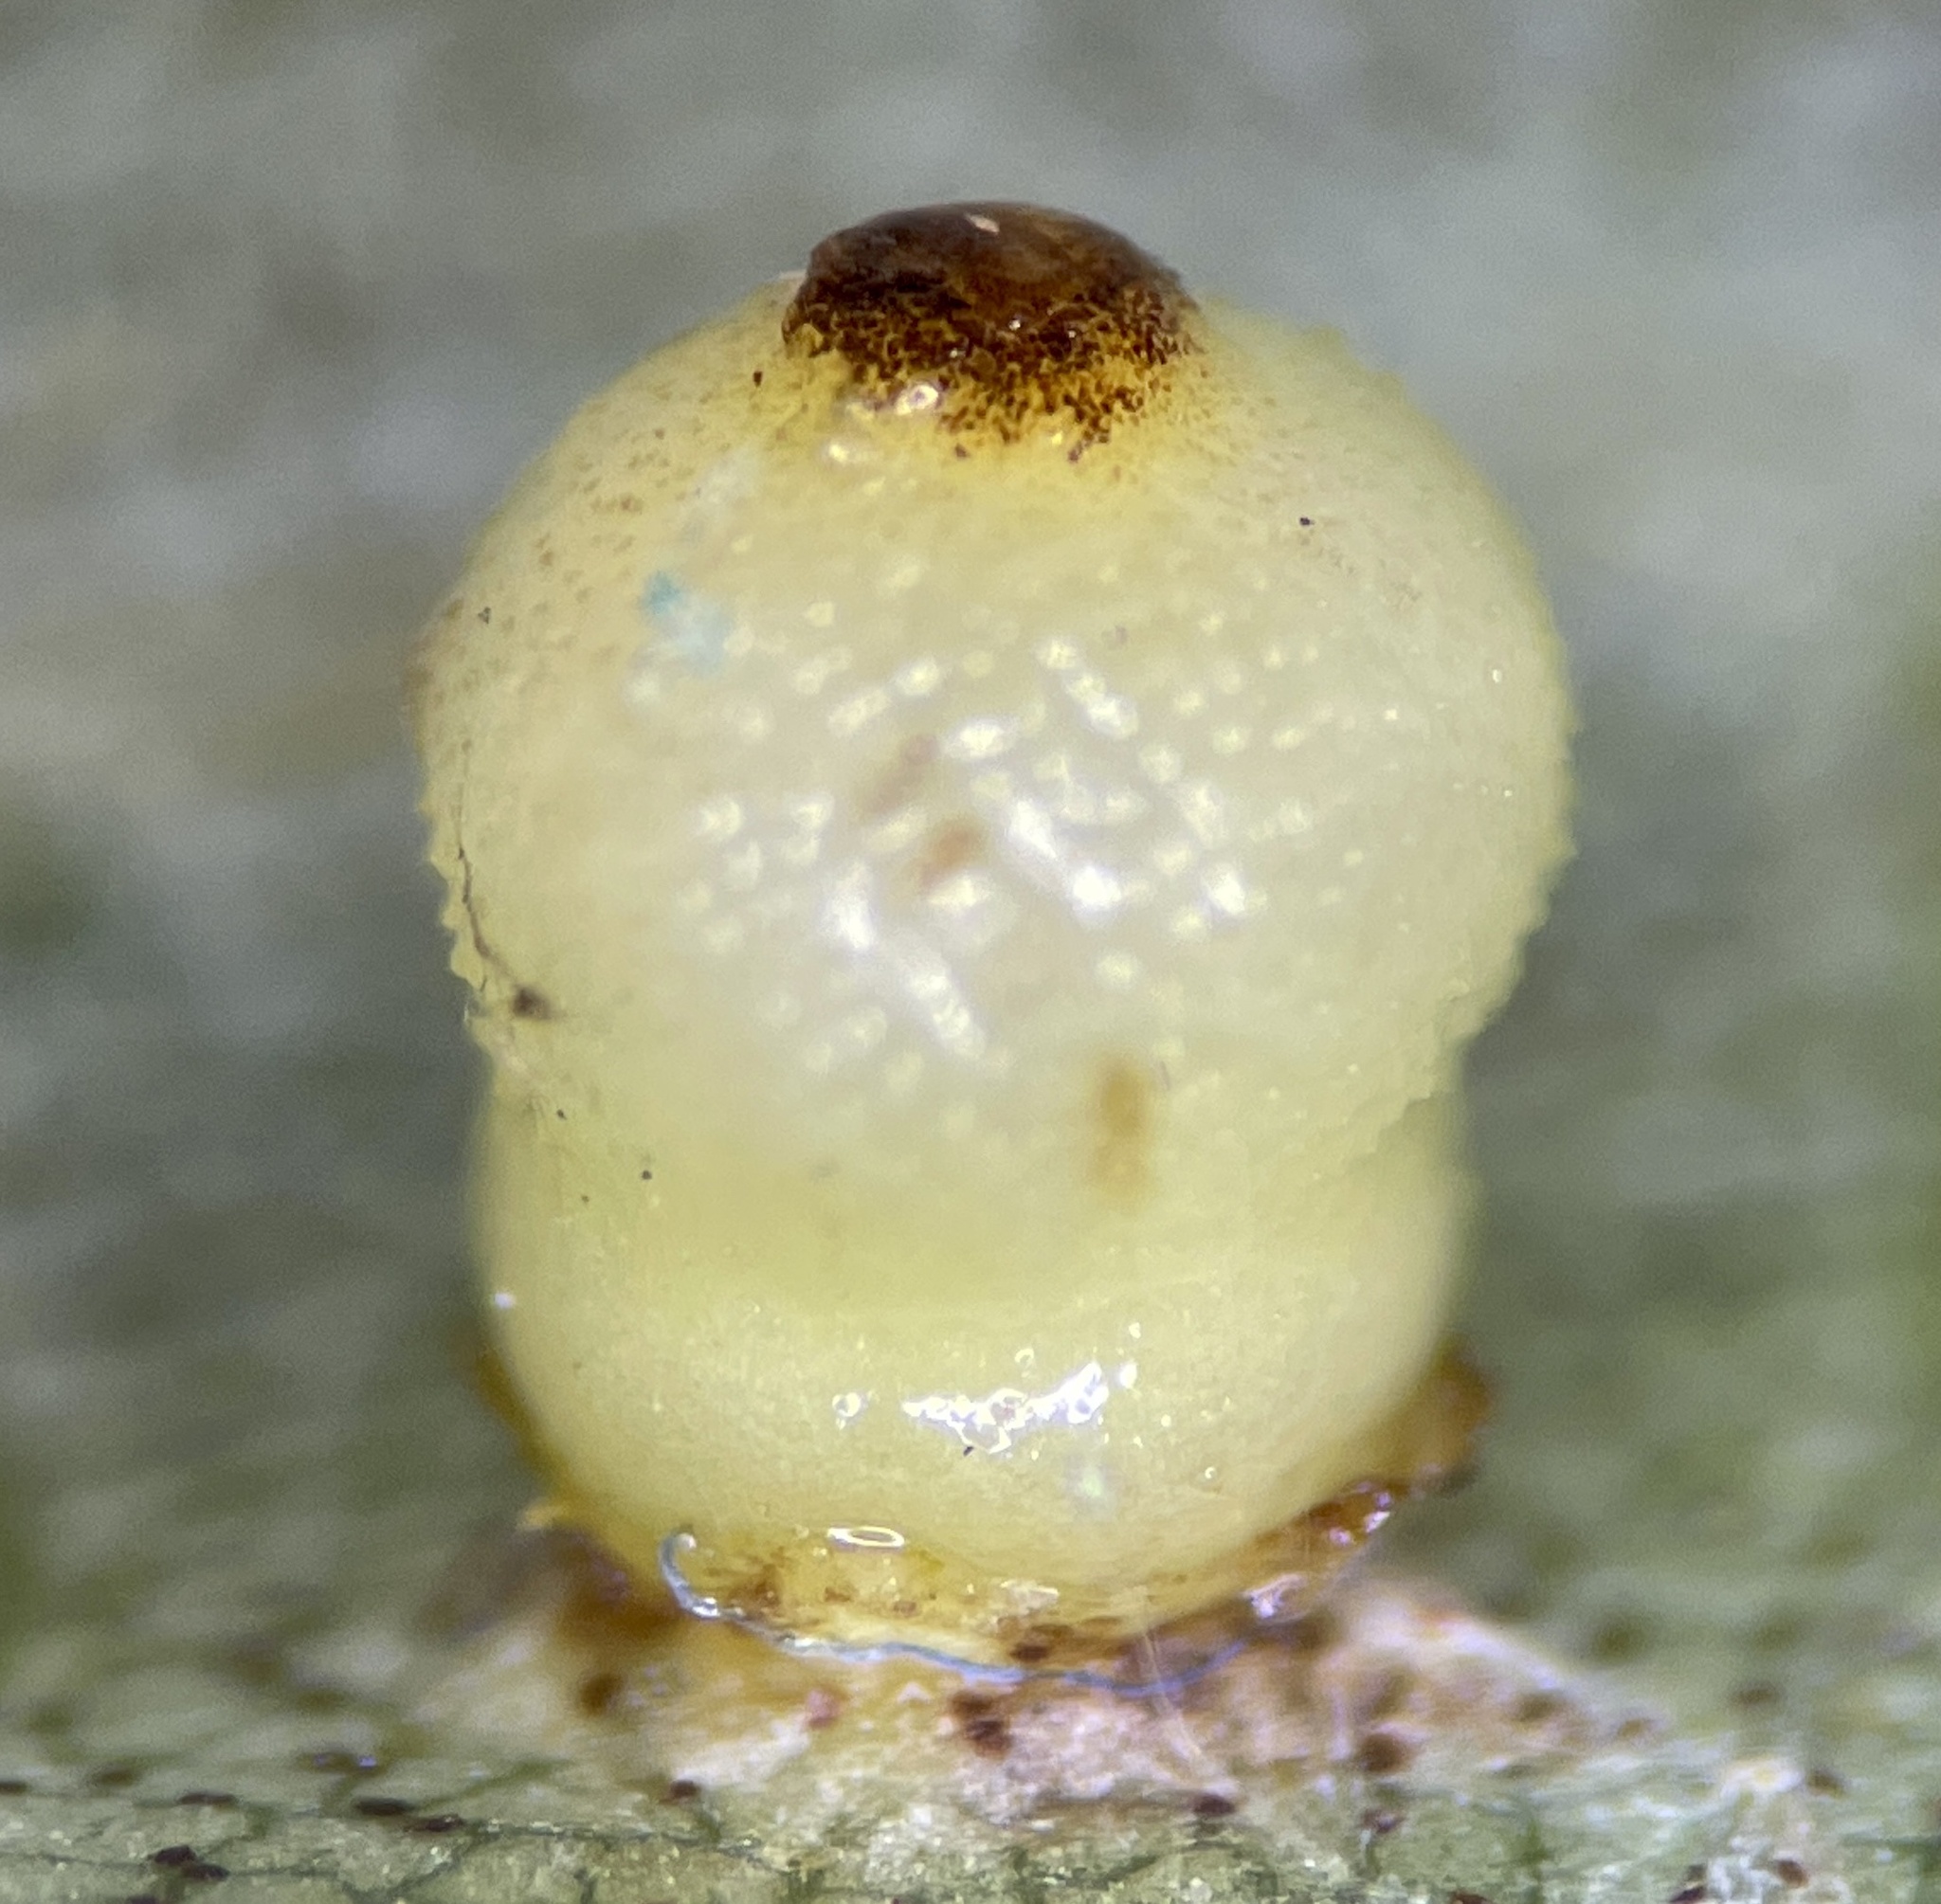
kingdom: Animalia
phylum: Arthropoda
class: Insecta
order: Diptera
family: Cecidomyiidae
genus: Caryomyia
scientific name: Caryomyia caryae
